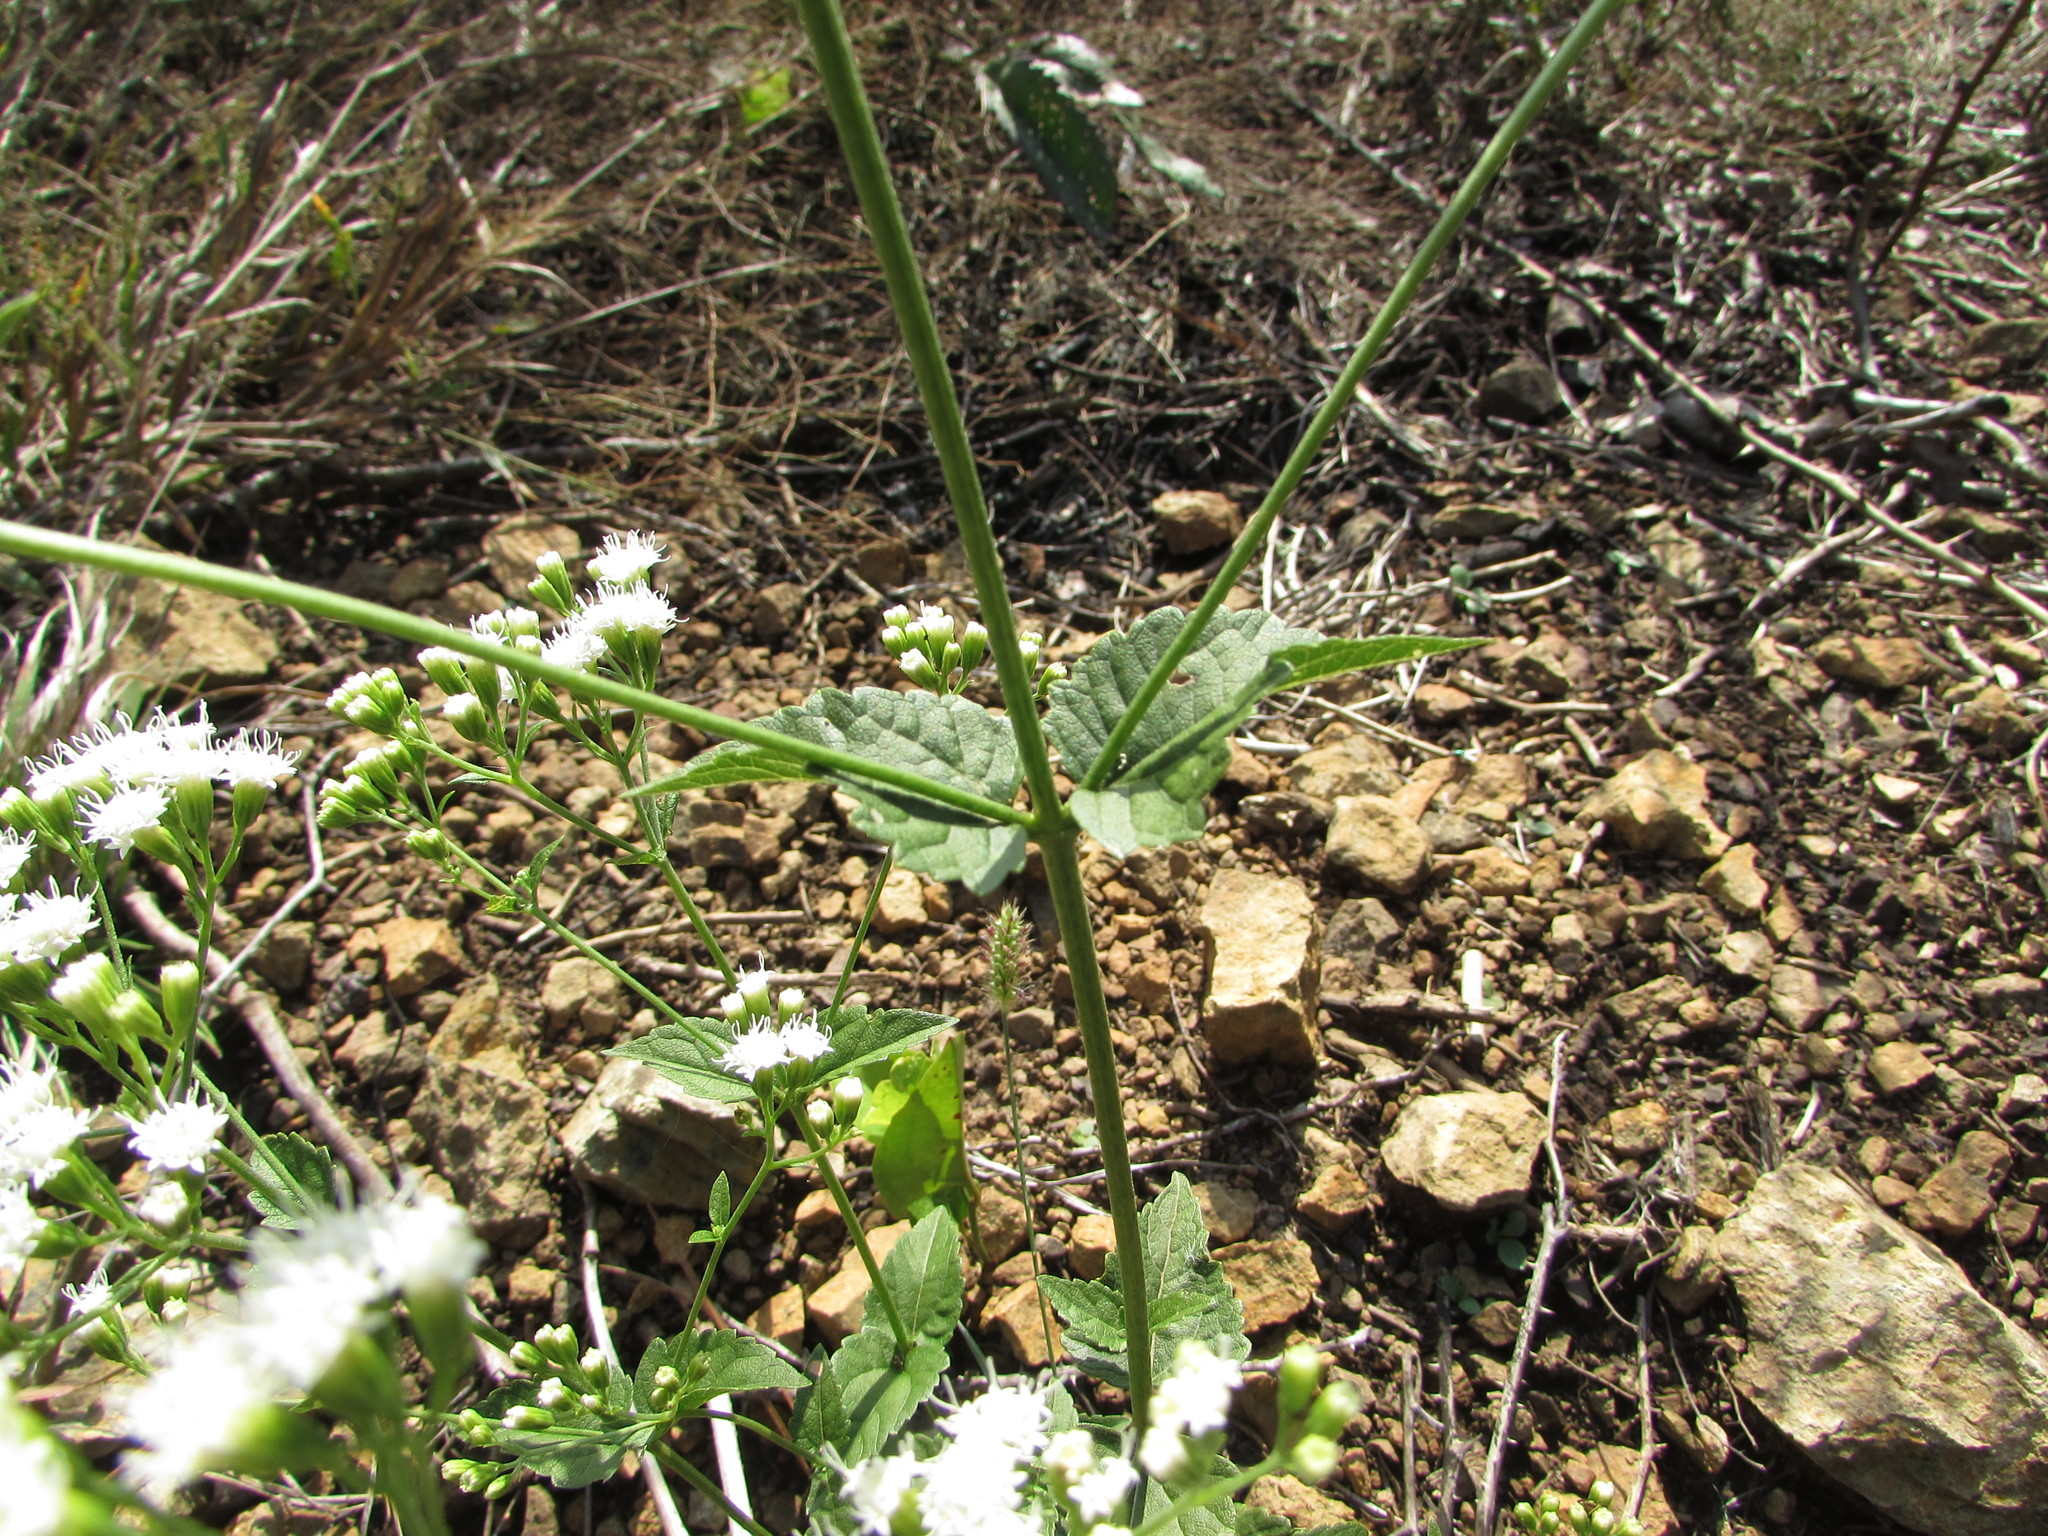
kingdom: Plantae
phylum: Tracheophyta
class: Magnoliopsida
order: Asterales
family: Asteraceae
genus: Ageratina
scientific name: Ageratina aromatica
